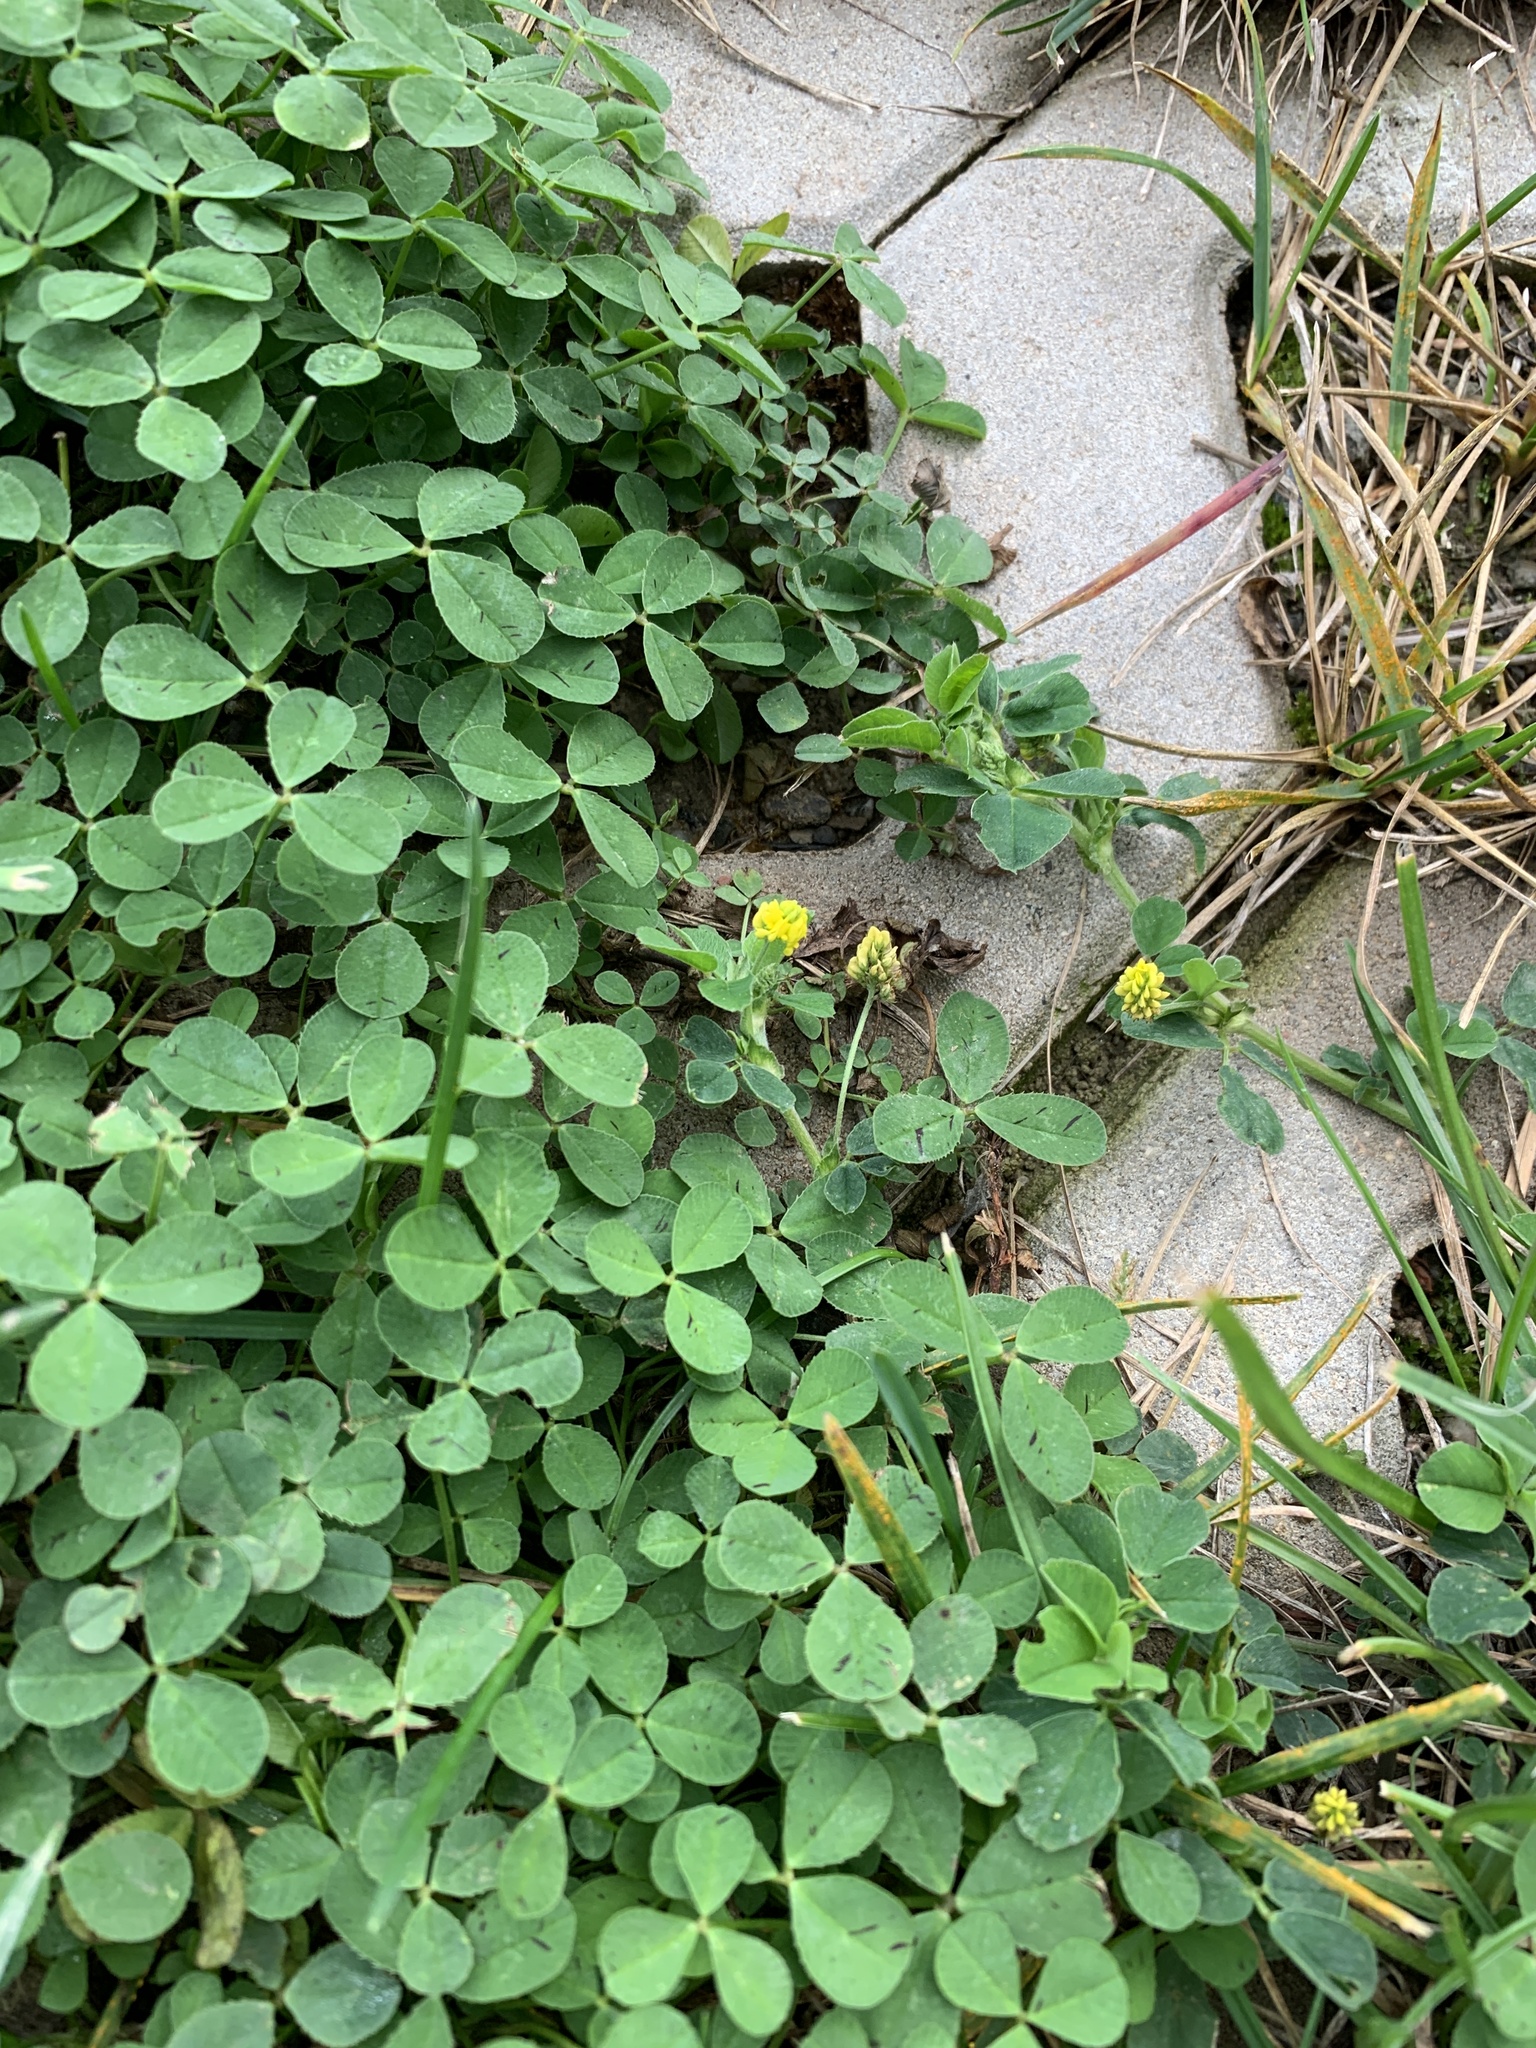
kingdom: Plantae
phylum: Tracheophyta
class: Magnoliopsida
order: Fabales
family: Fabaceae
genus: Medicago
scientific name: Medicago lupulina
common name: Black medick
